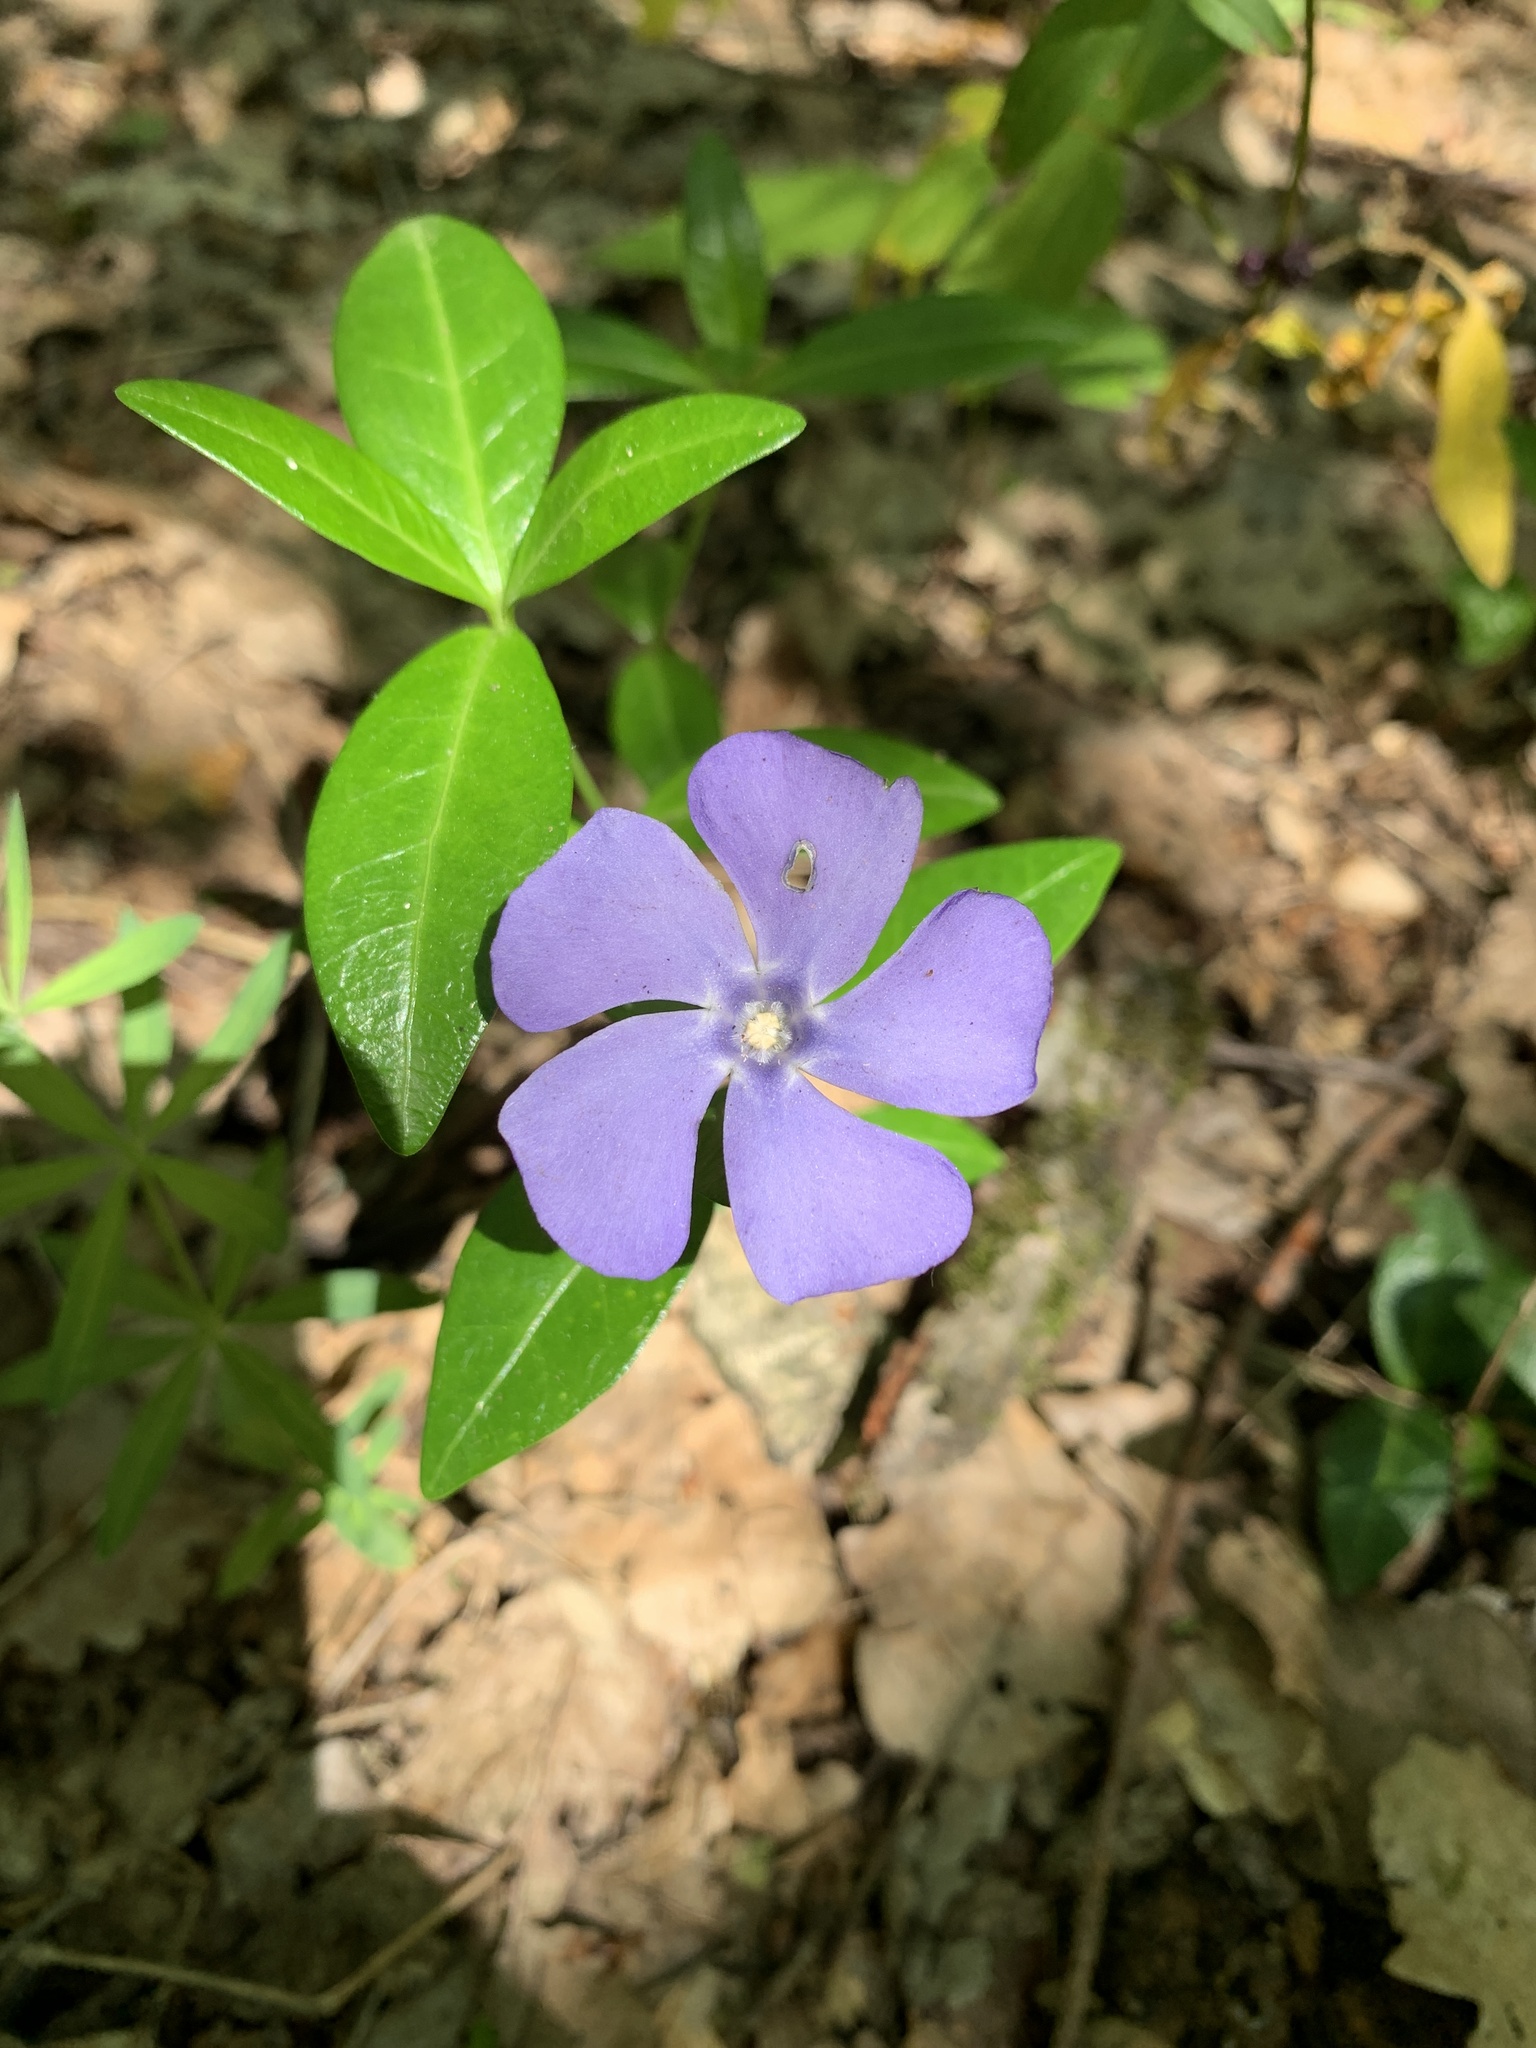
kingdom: Plantae
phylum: Tracheophyta
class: Magnoliopsida
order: Gentianales
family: Apocynaceae
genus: Vinca
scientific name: Vinca minor
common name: Lesser periwinkle
